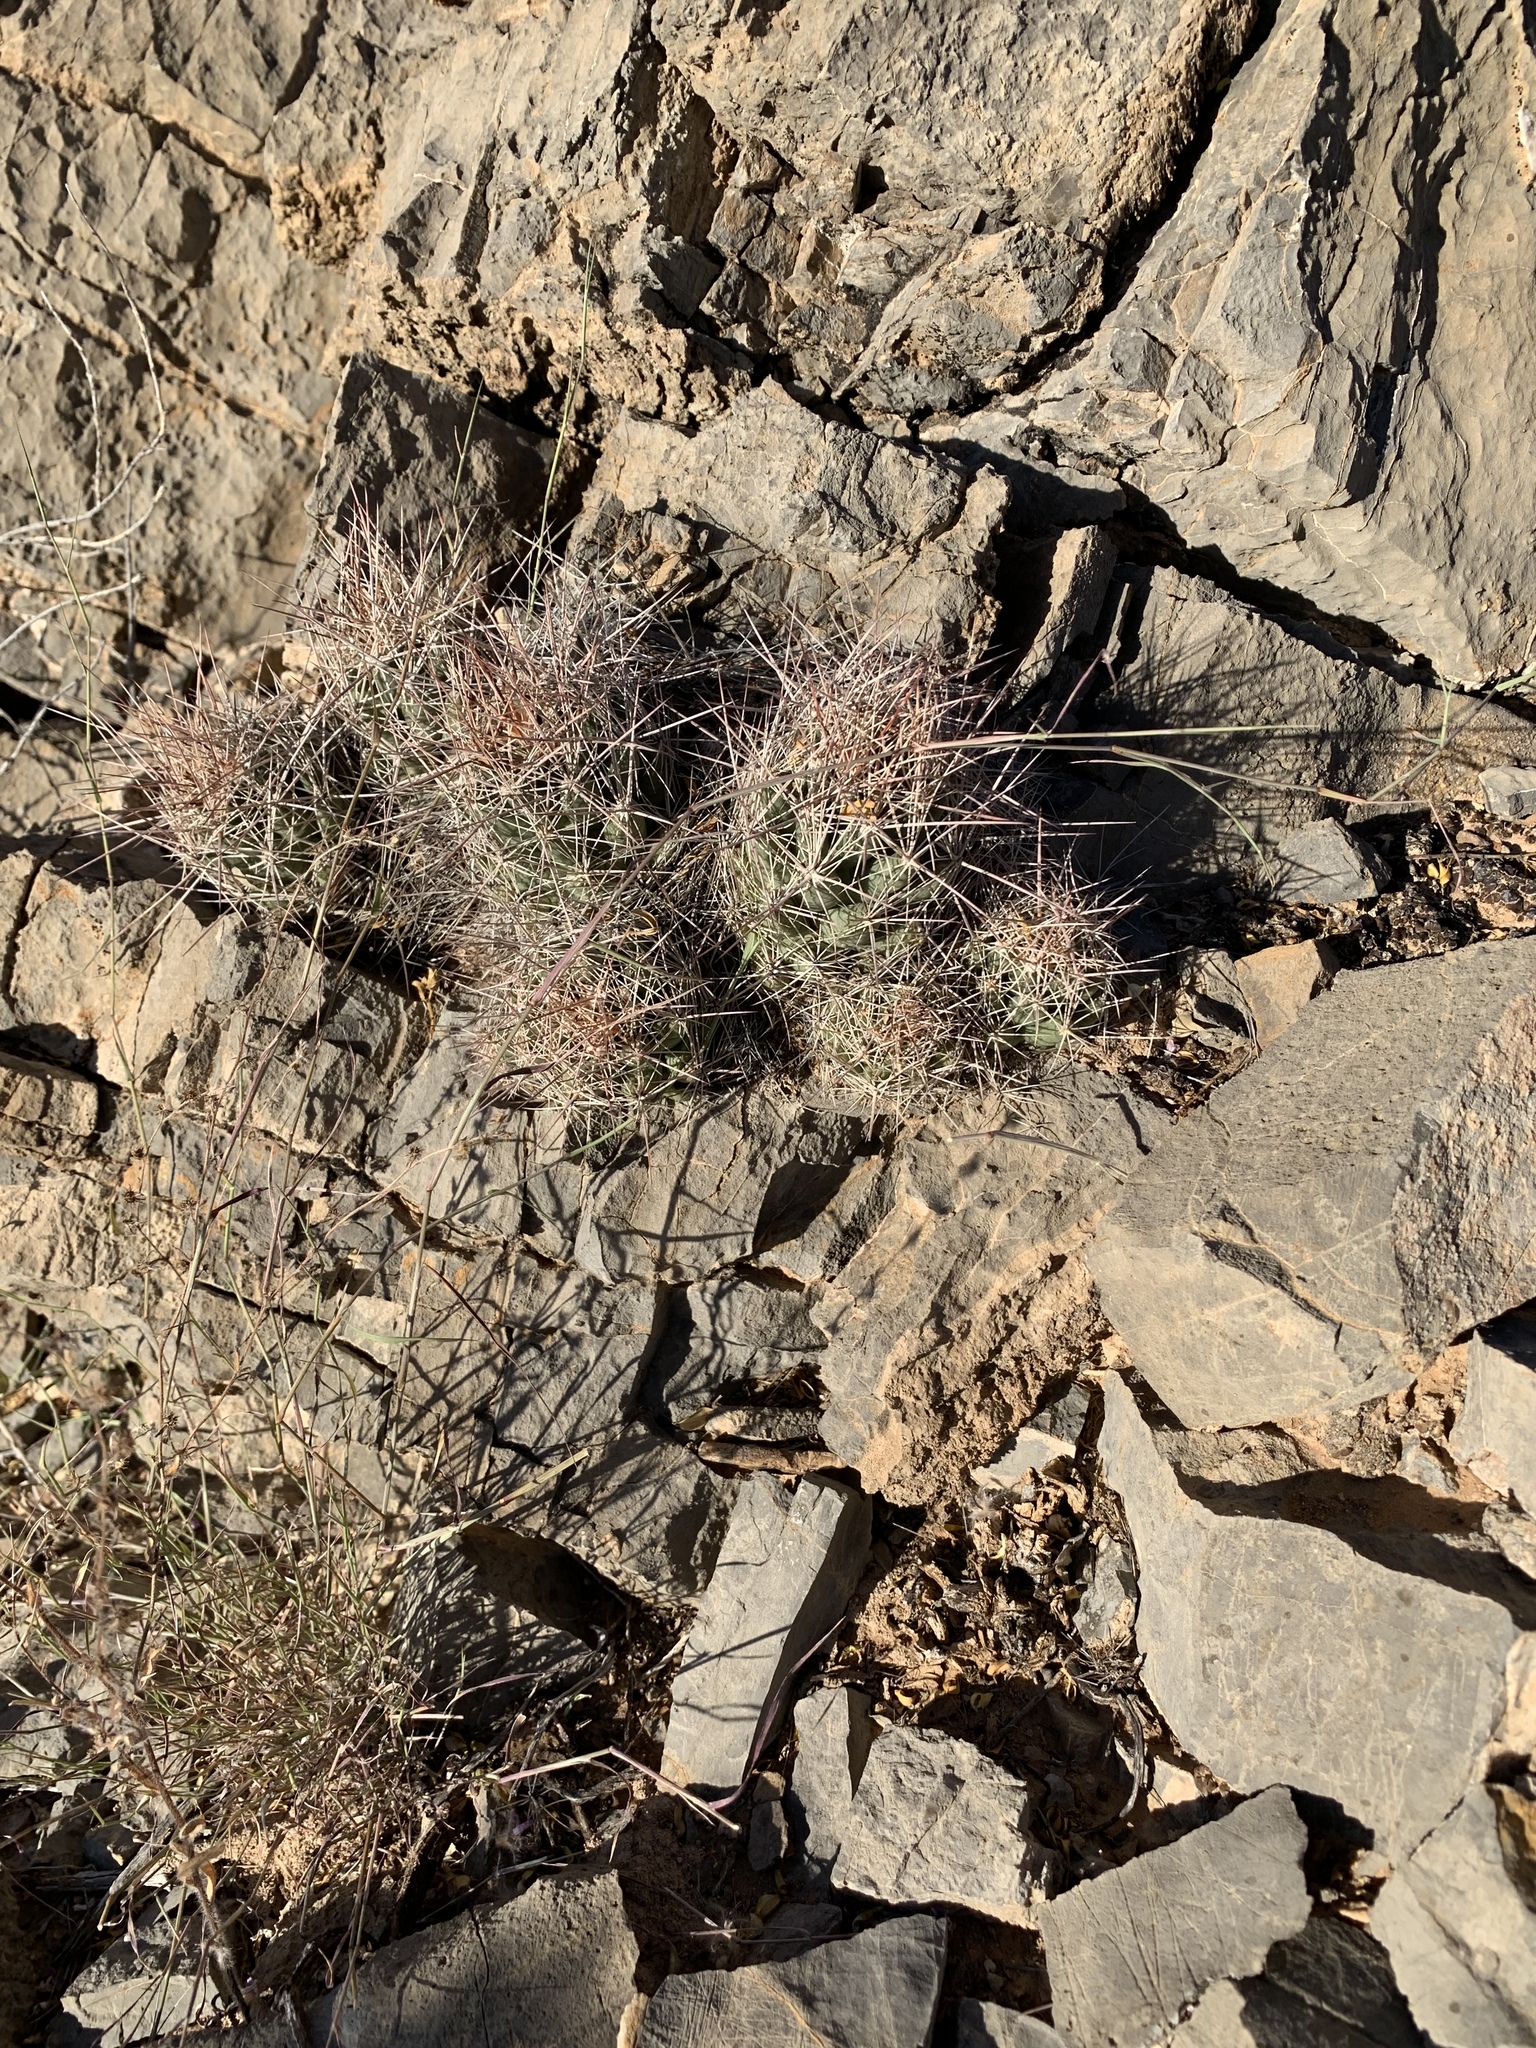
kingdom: Plantae
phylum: Tracheophyta
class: Magnoliopsida
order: Caryophyllales
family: Cactaceae
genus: Coryphantha
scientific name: Coryphantha macromeris
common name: Nipple beehive cactus
